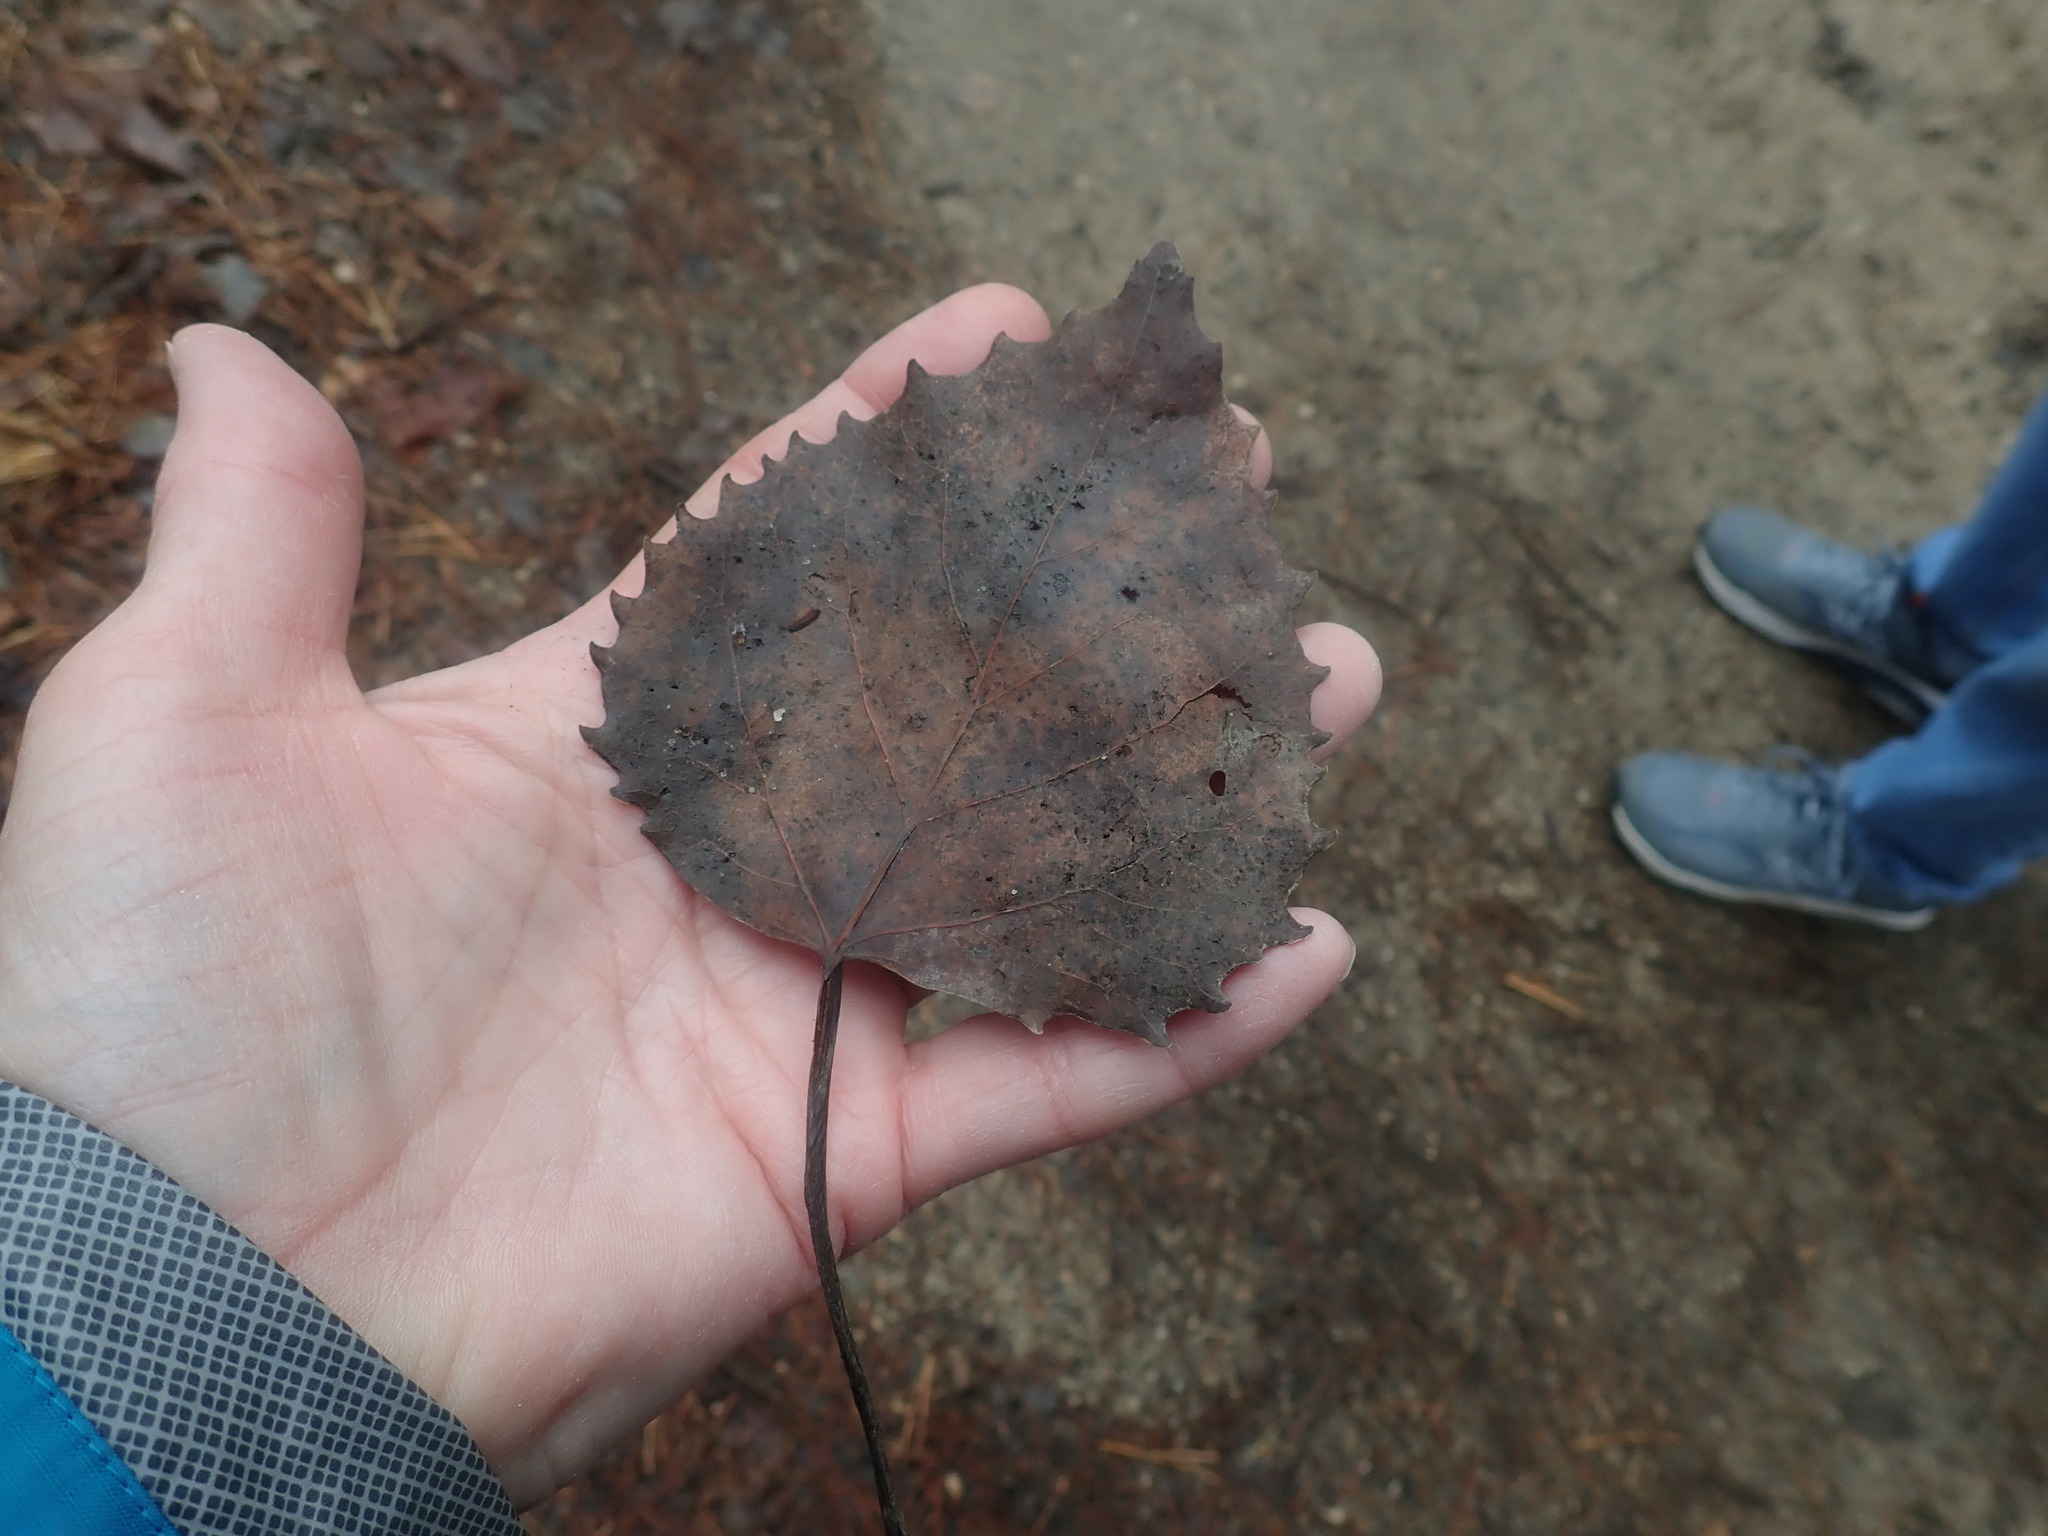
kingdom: Plantae
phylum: Tracheophyta
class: Magnoliopsida
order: Malpighiales
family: Salicaceae
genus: Populus
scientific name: Populus grandidentata
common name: Bigtooth aspen
